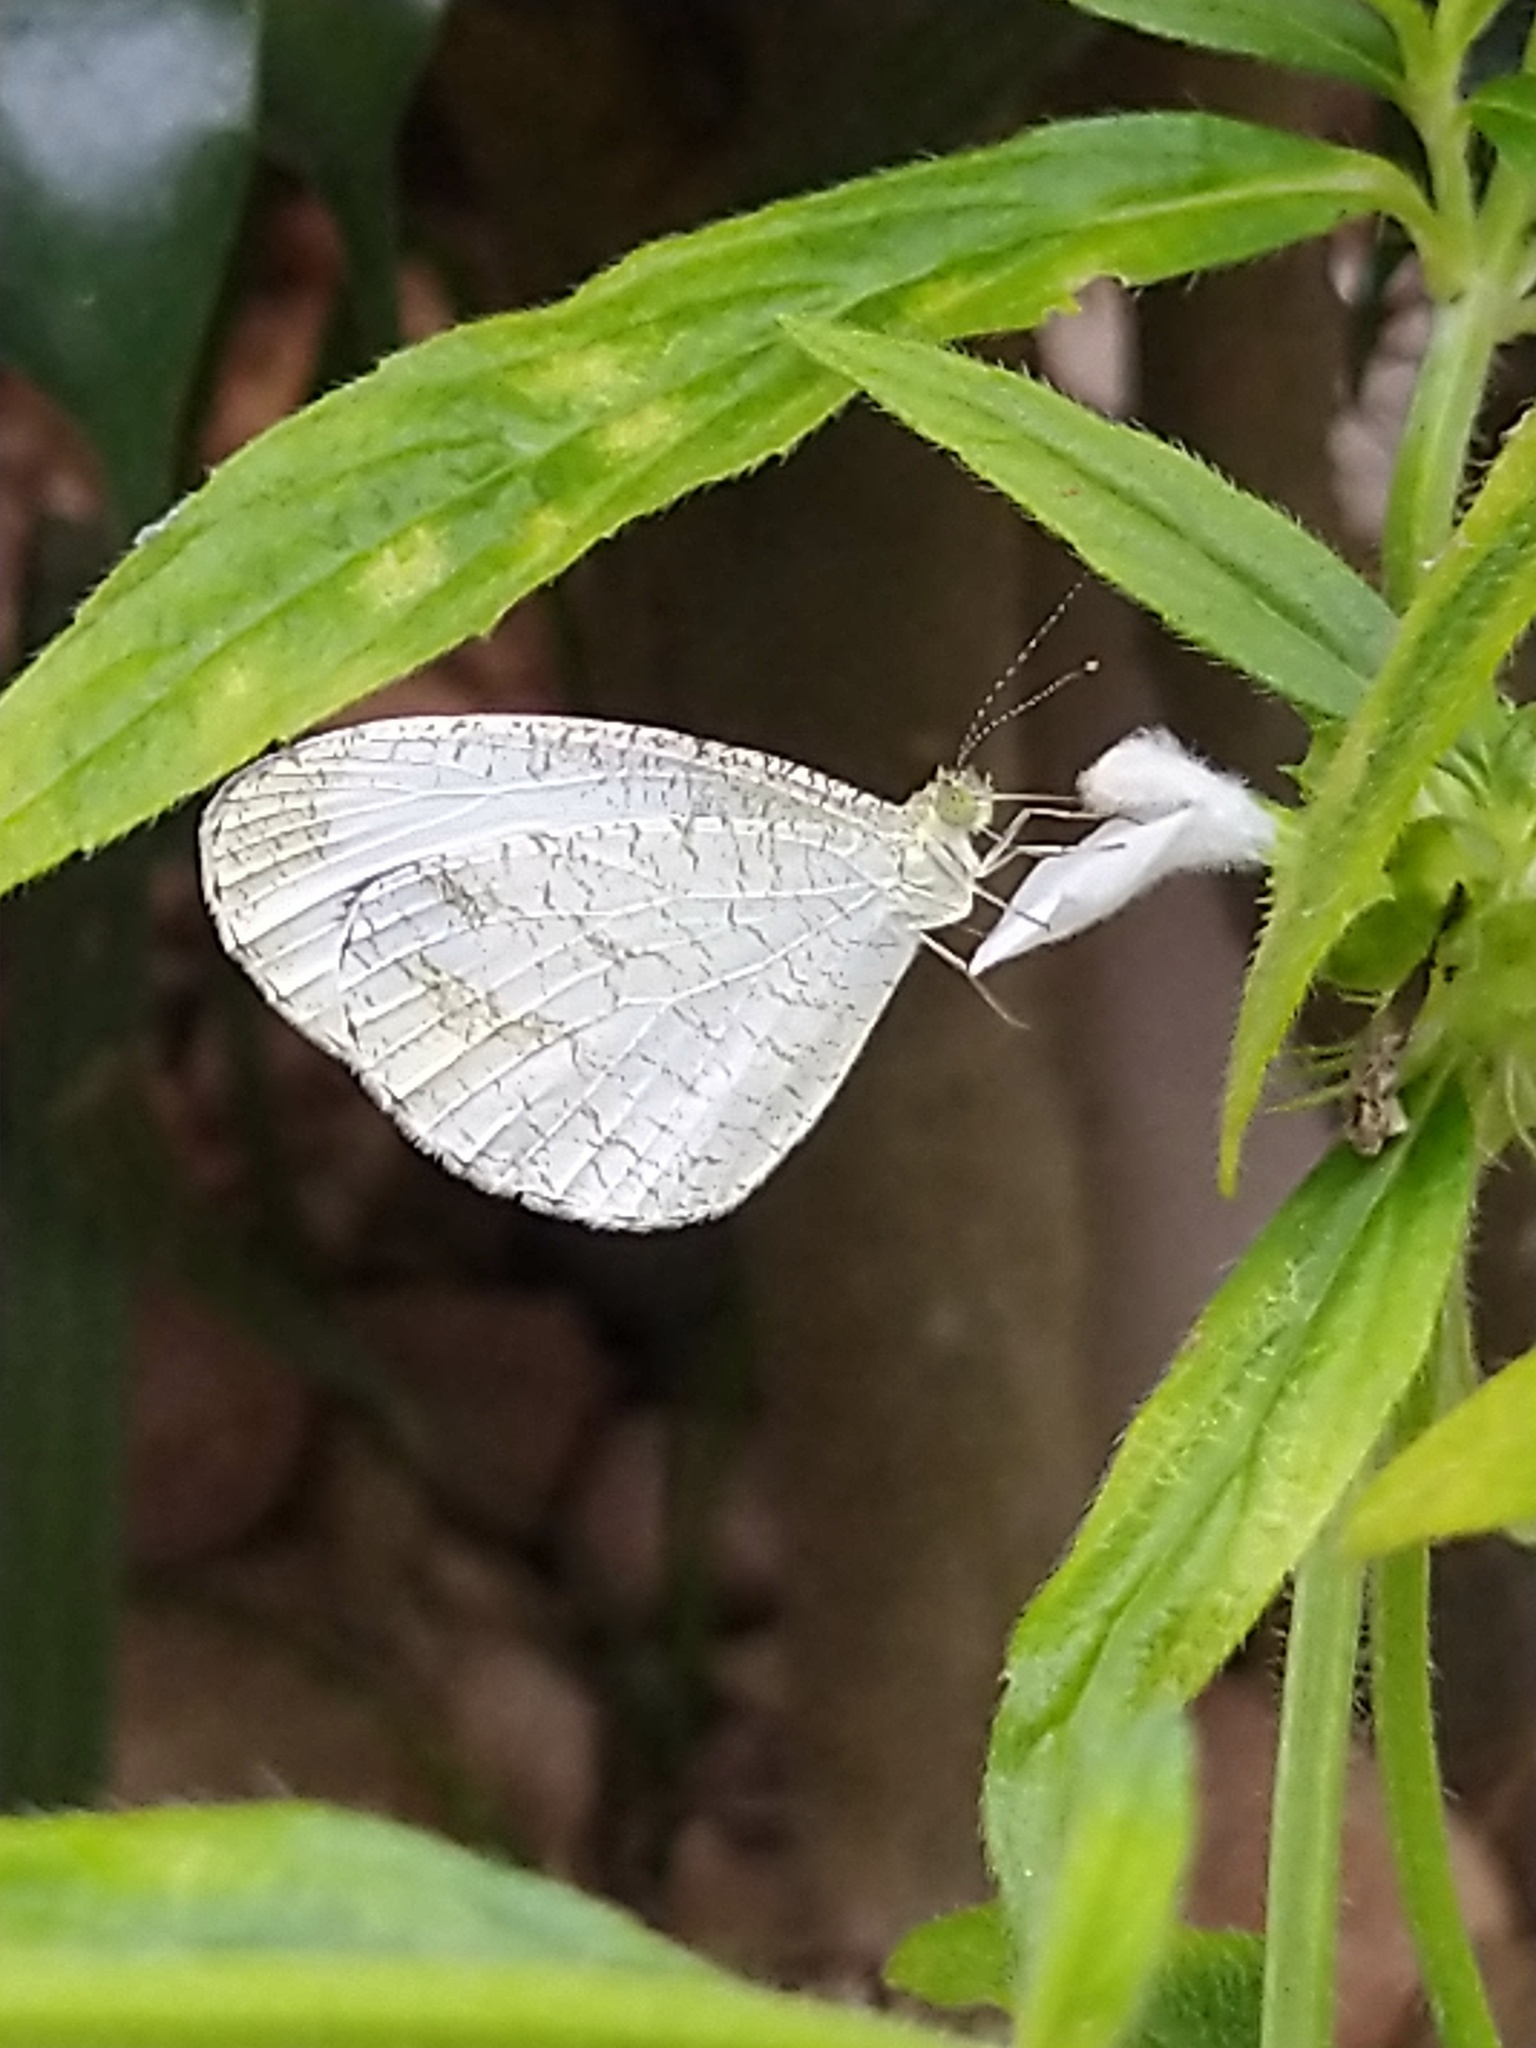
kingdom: Animalia
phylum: Arthropoda
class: Insecta
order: Lepidoptera
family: Pieridae
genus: Leptosia
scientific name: Leptosia nina
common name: Psyche
